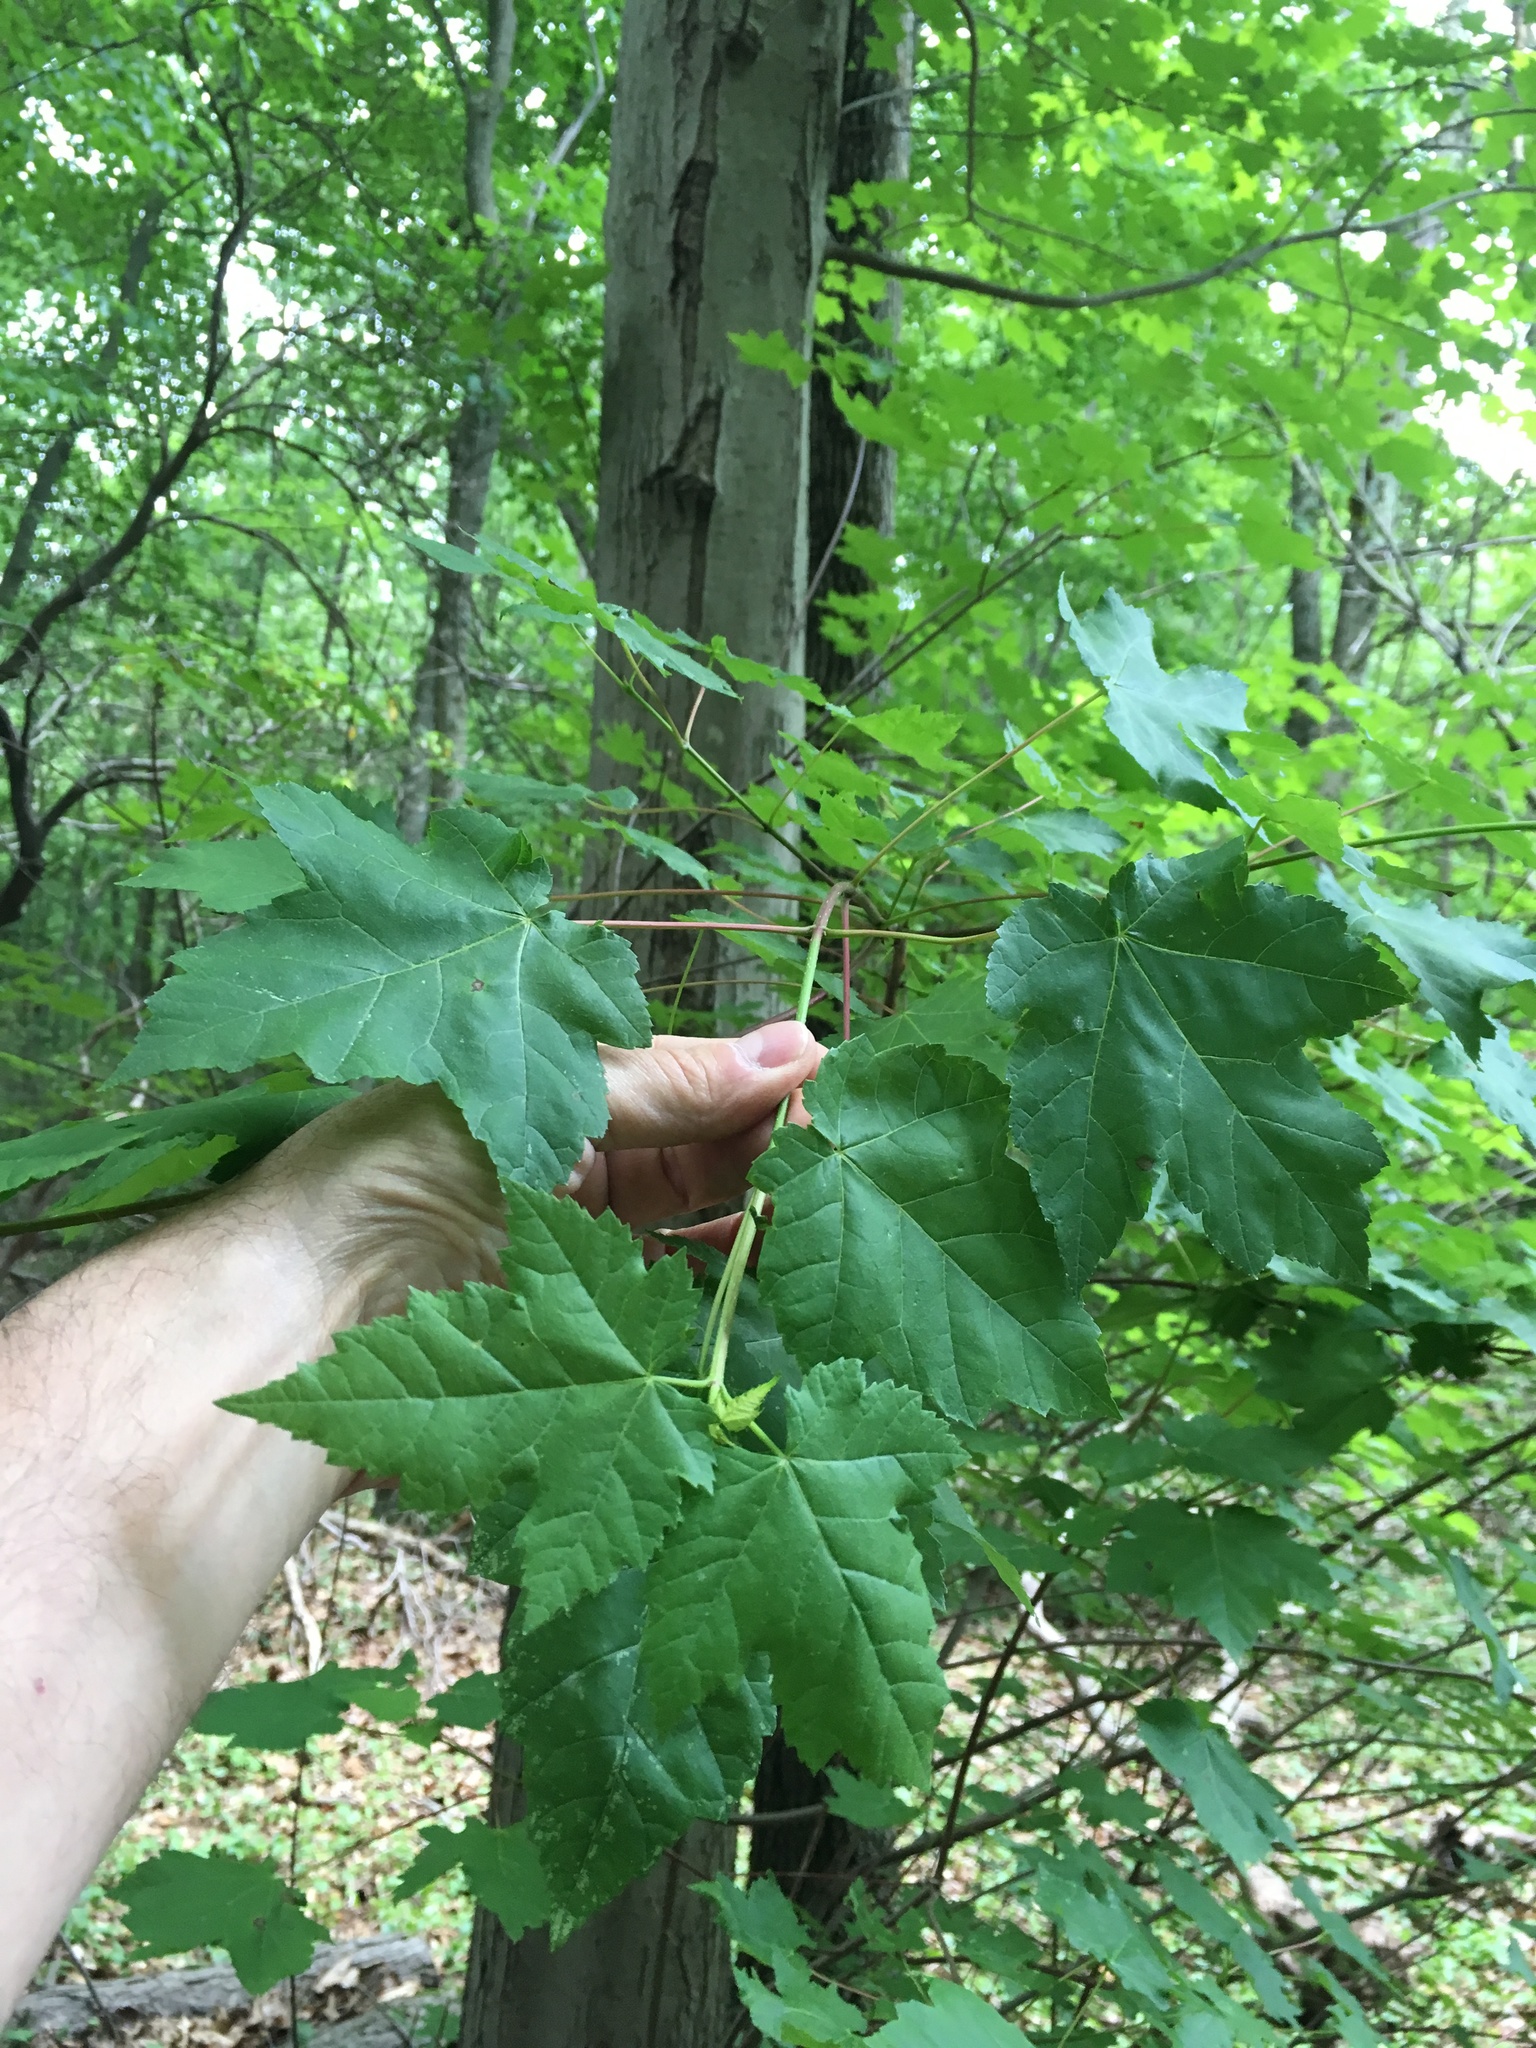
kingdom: Plantae
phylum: Tracheophyta
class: Magnoliopsida
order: Sapindales
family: Sapindaceae
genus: Acer
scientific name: Acer rubrum
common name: Red maple
